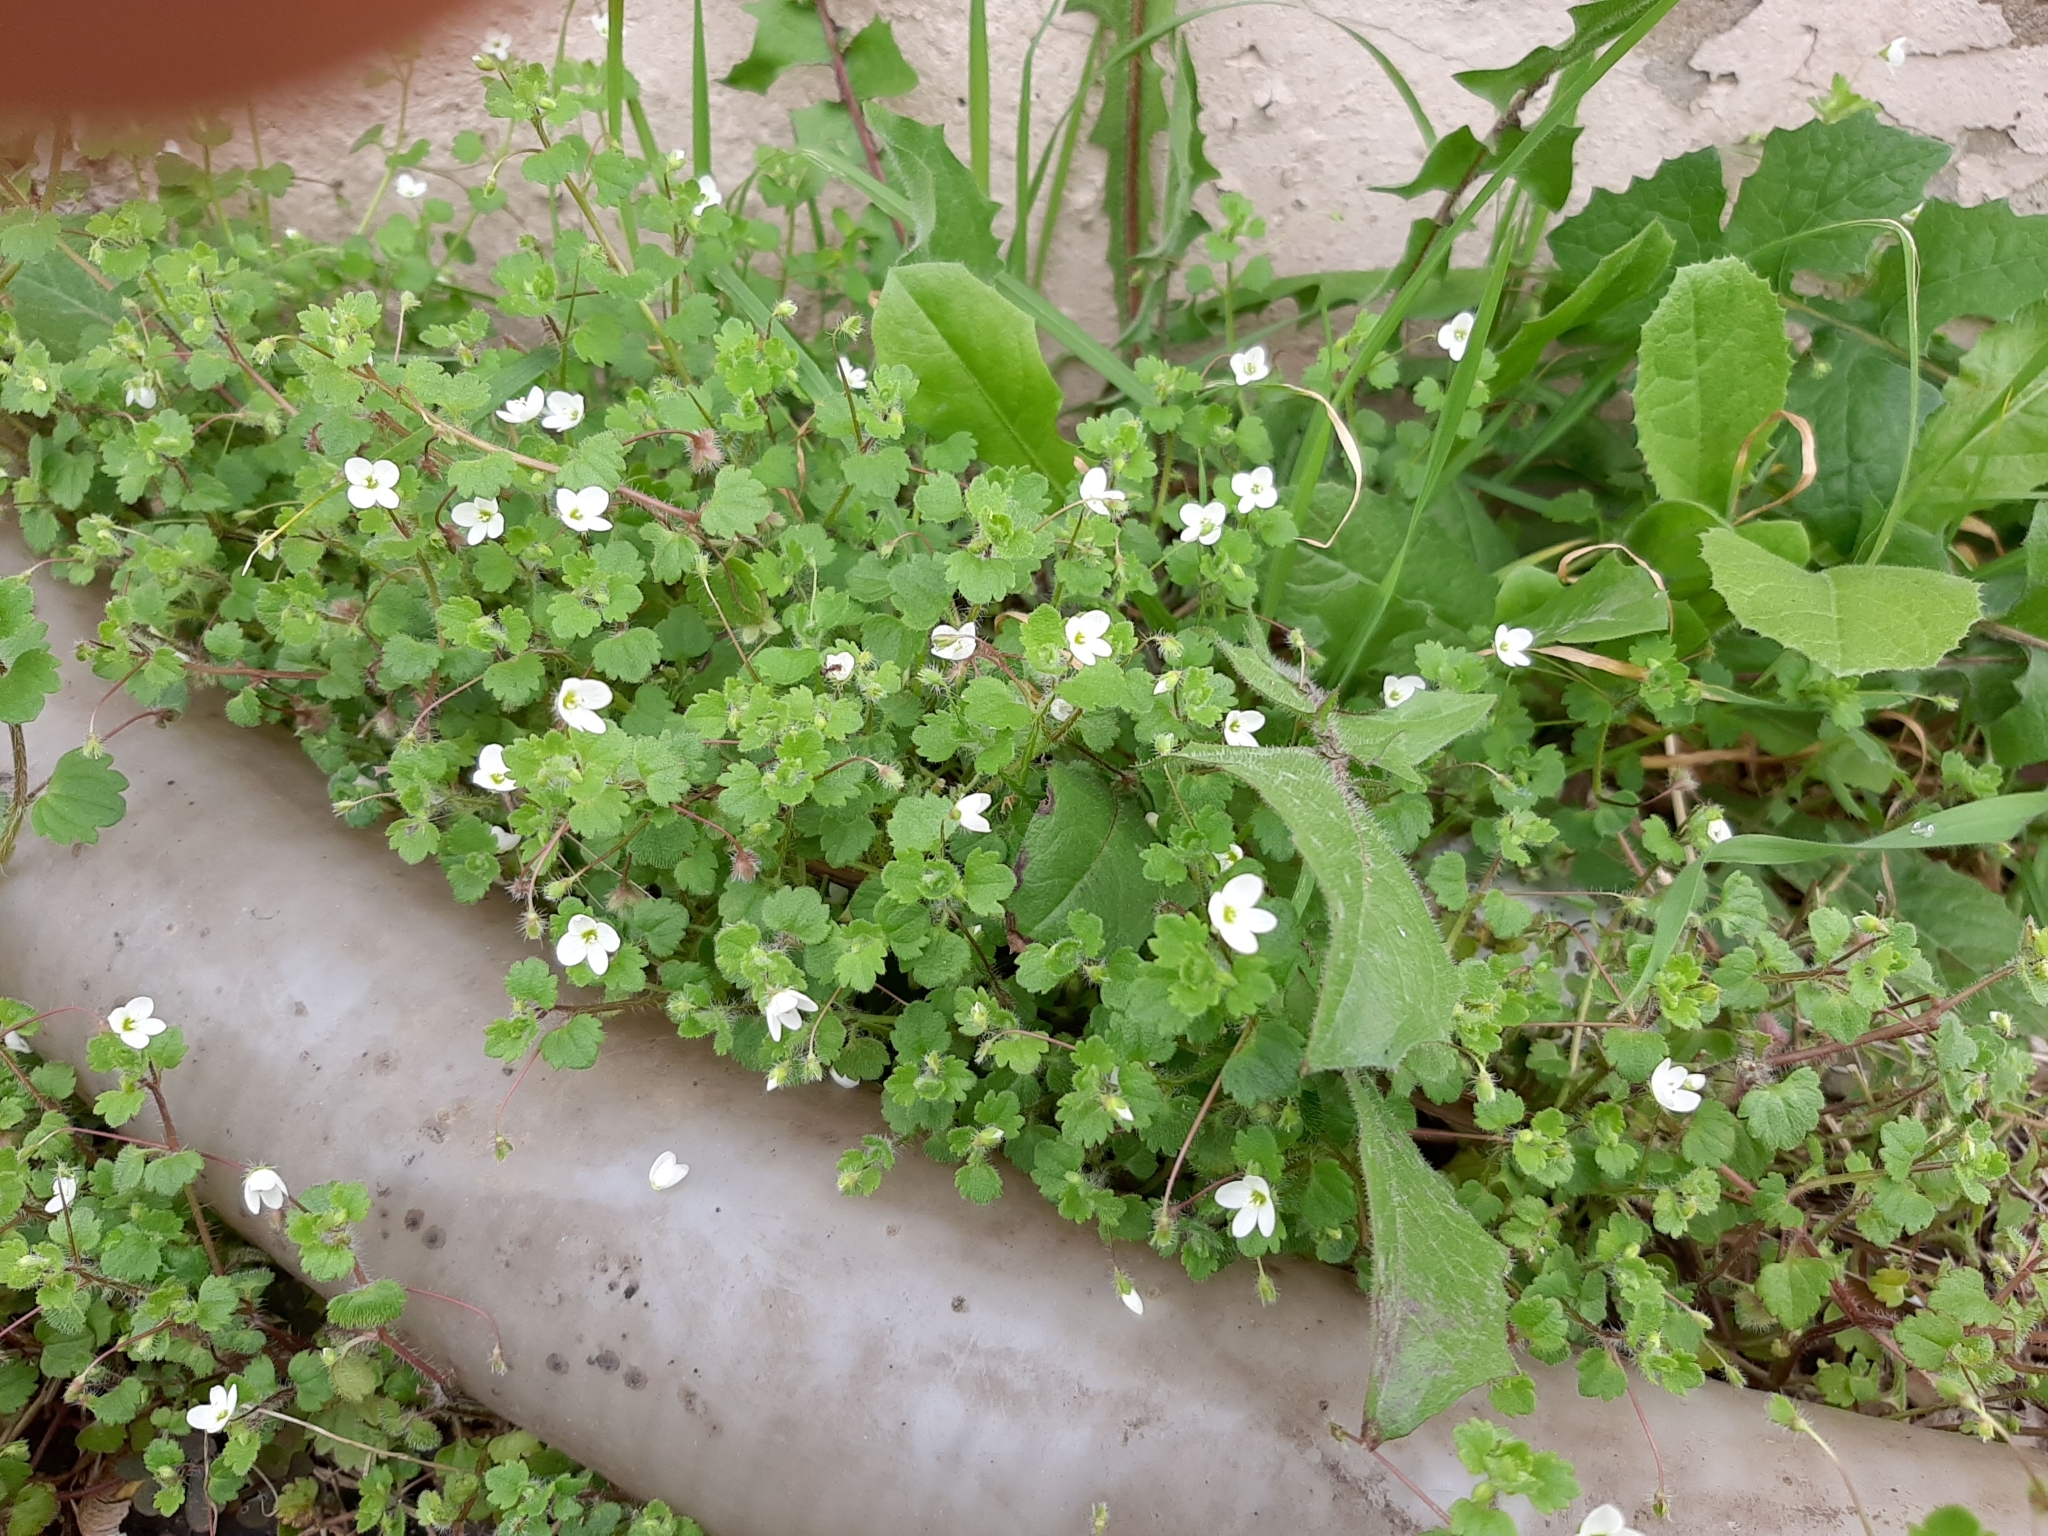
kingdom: Plantae
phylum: Tracheophyta
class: Magnoliopsida
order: Lamiales
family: Plantaginaceae
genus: Veronica
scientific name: Veronica cymbalaria
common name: Pale speedwell
